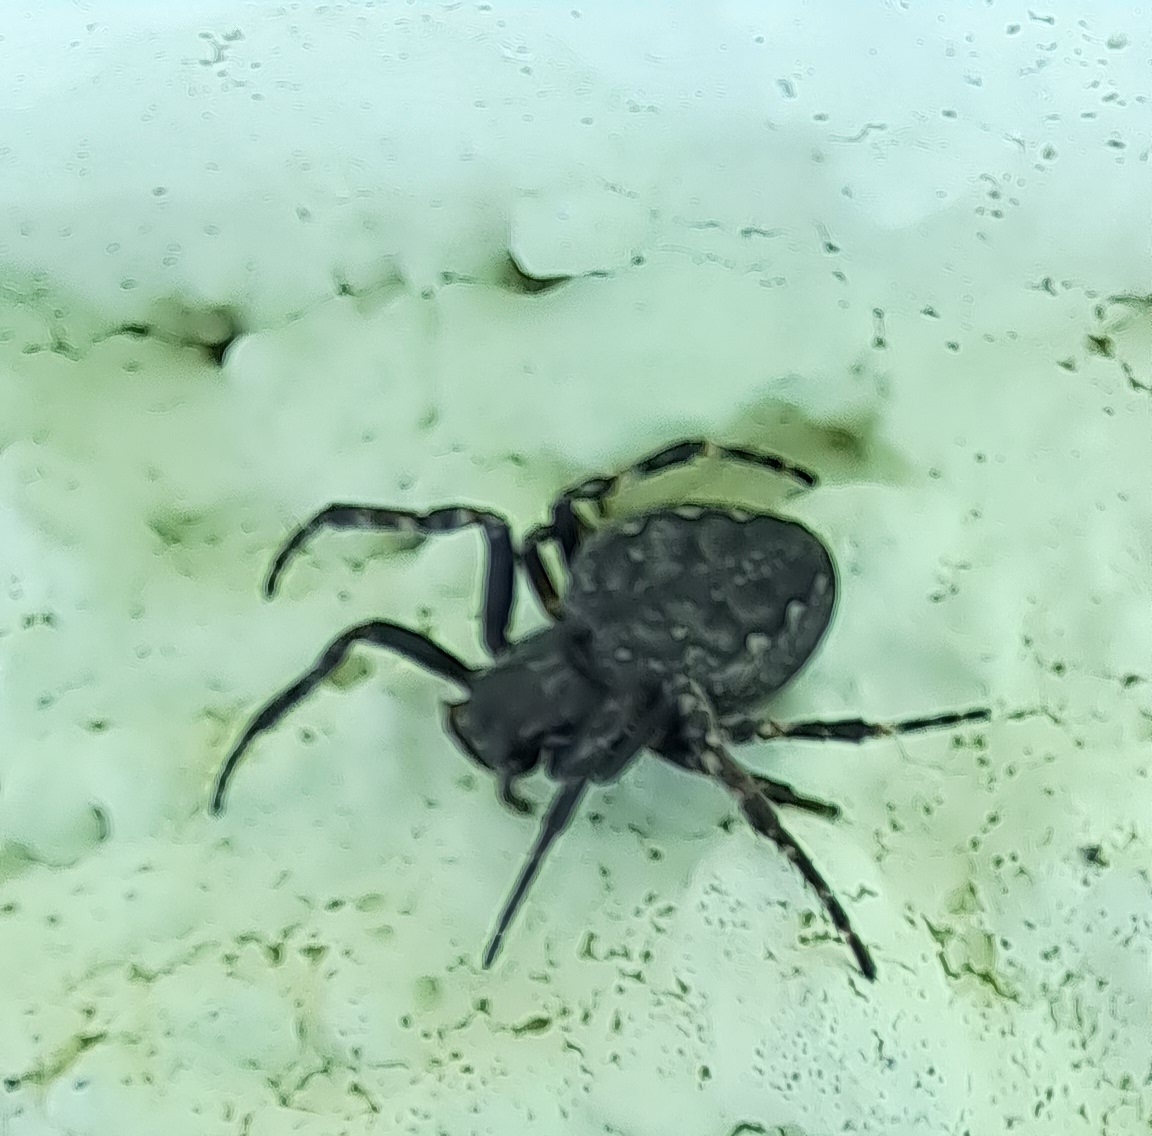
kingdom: Animalia
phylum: Arthropoda
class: Arachnida
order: Araneae
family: Araneidae
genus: Nuctenea
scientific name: Nuctenea umbratica
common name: Toad spider
